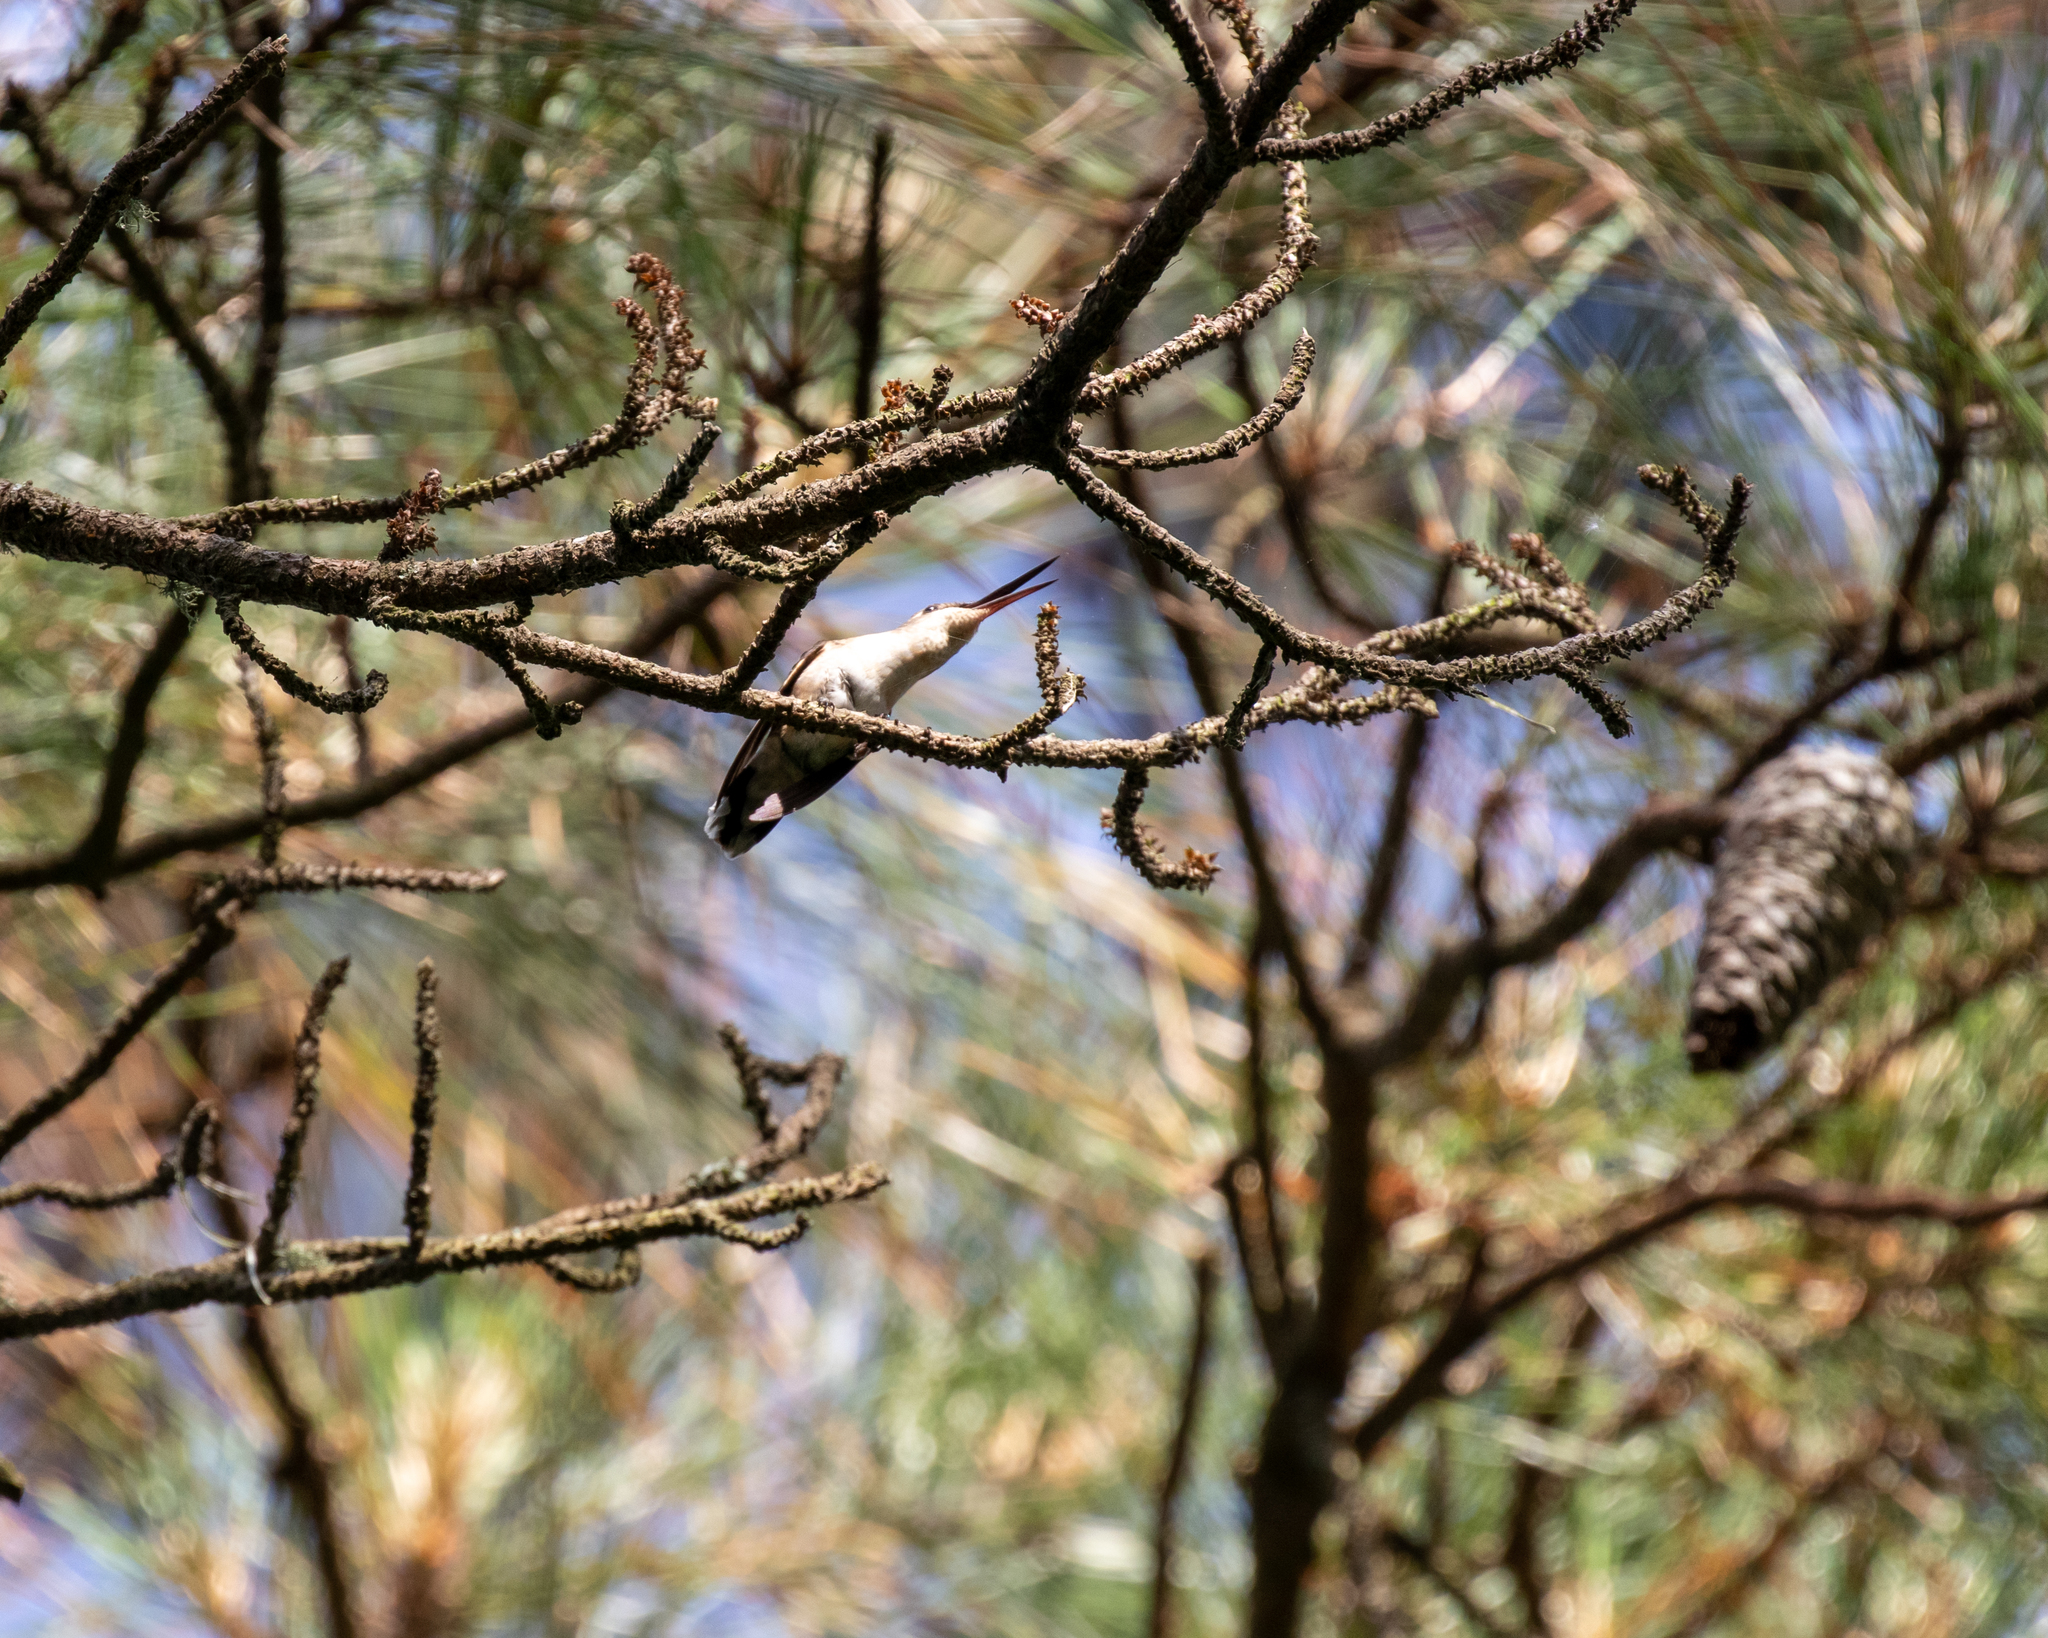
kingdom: Animalia
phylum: Chordata
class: Aves
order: Apodiformes
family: Trochilidae
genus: Archilochus
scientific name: Archilochus colubris
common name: Ruby-throated hummingbird
